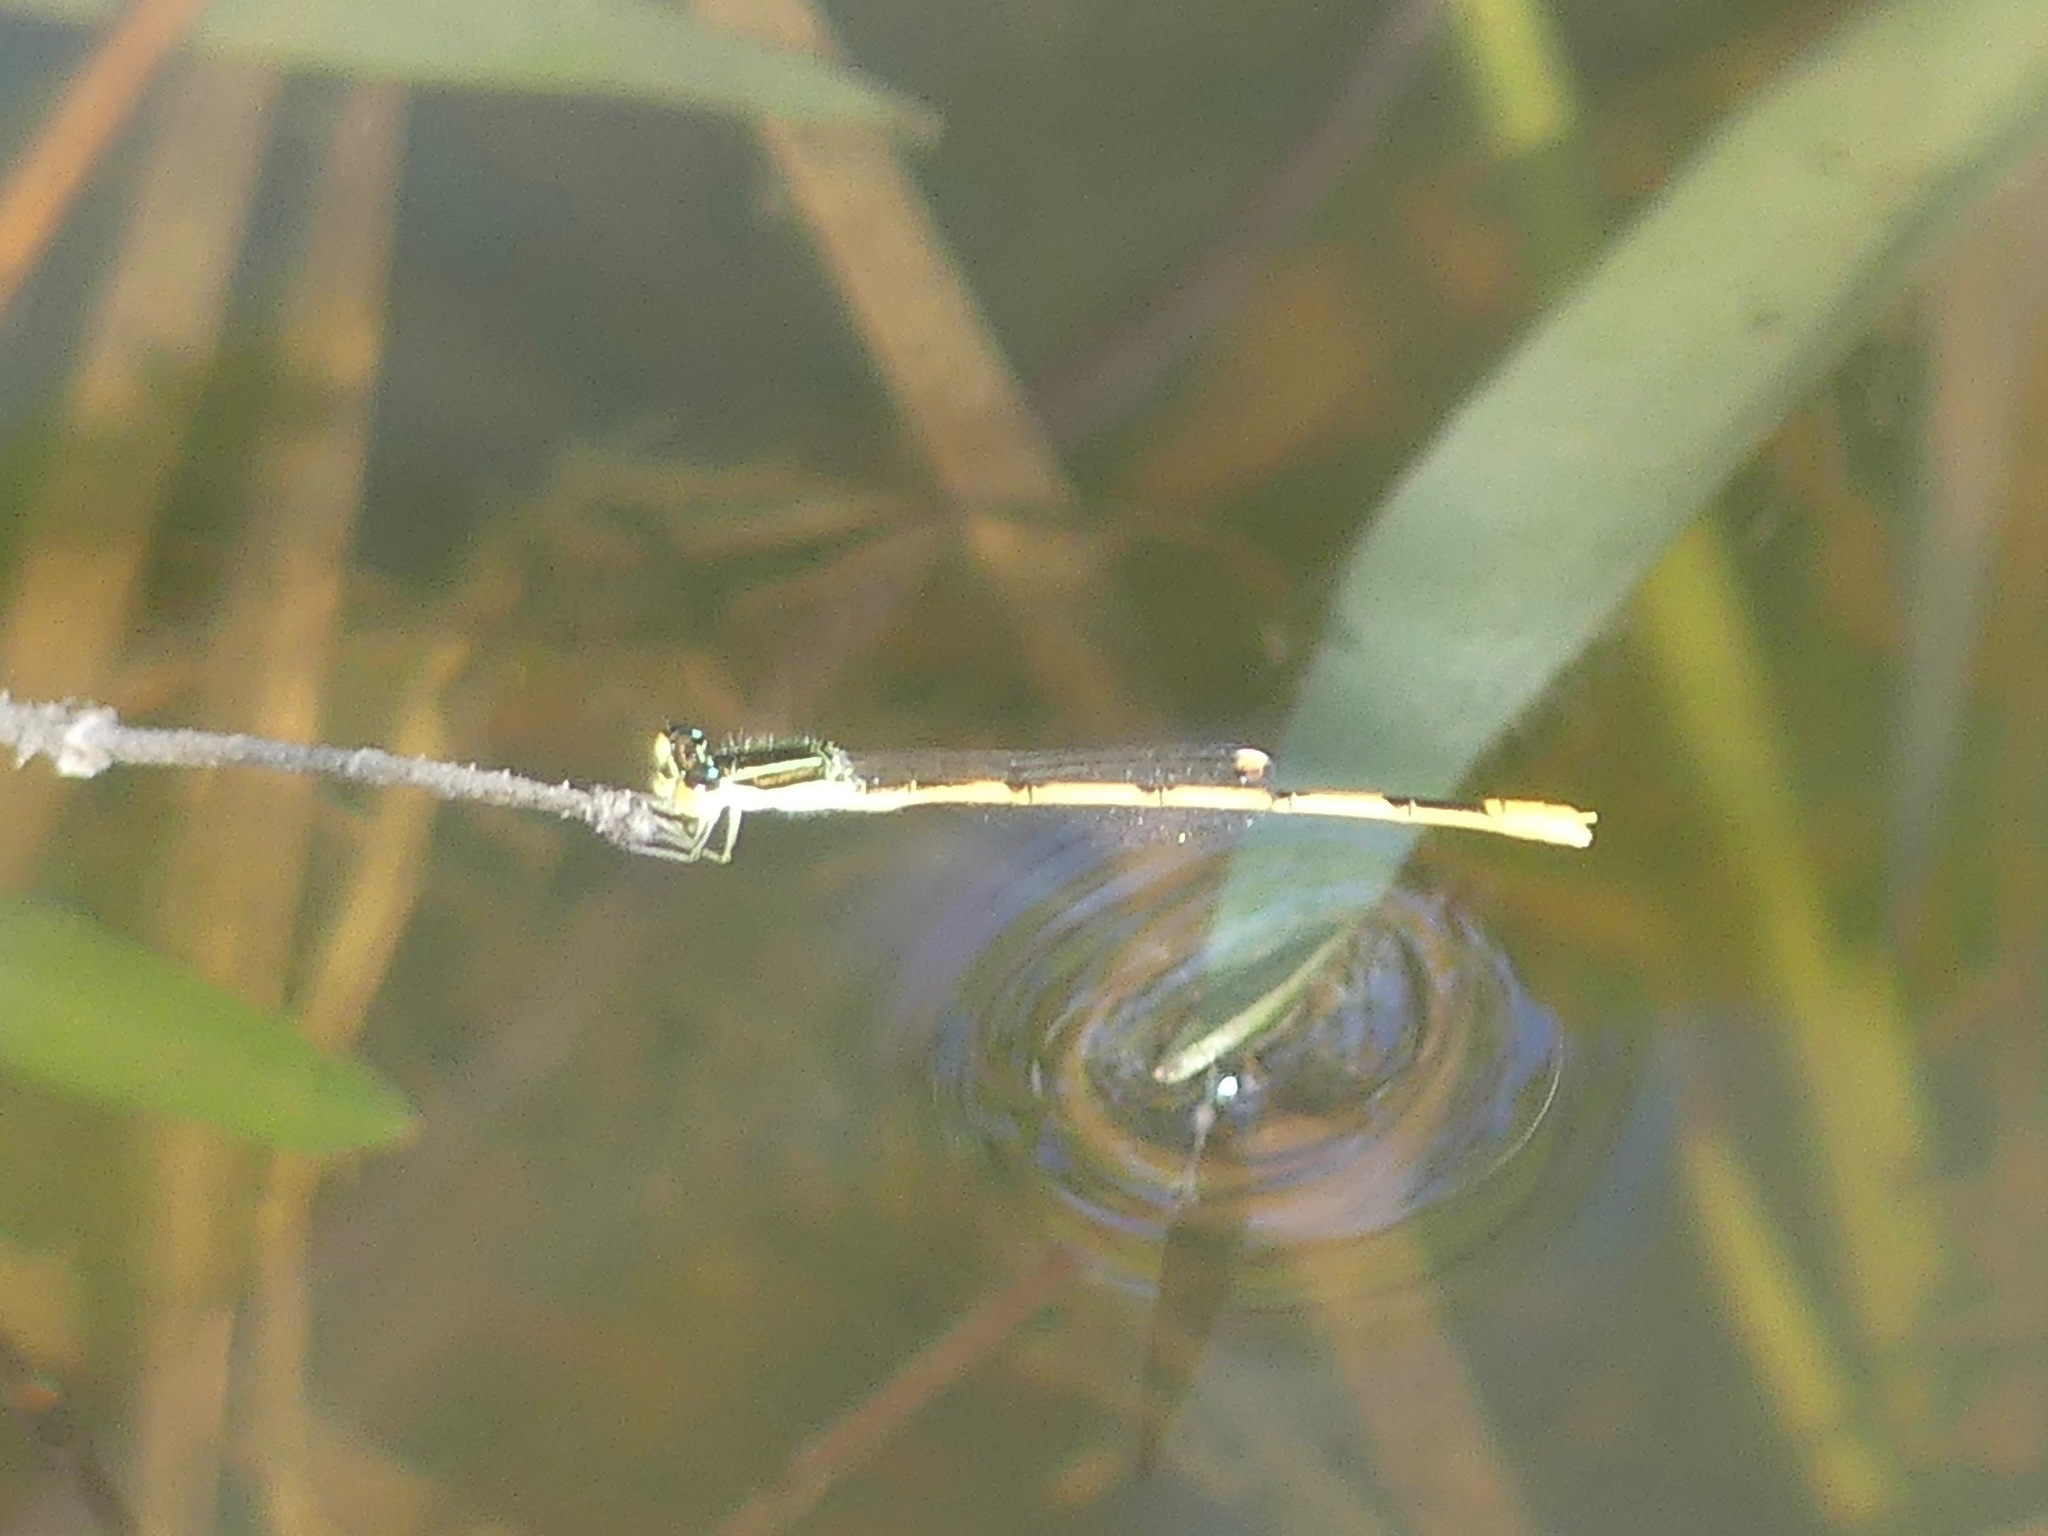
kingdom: Animalia
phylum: Arthropoda
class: Insecta
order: Odonata
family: Coenagrionidae
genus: Ischnura
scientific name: Ischnura hastata
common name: Citrine forktail
